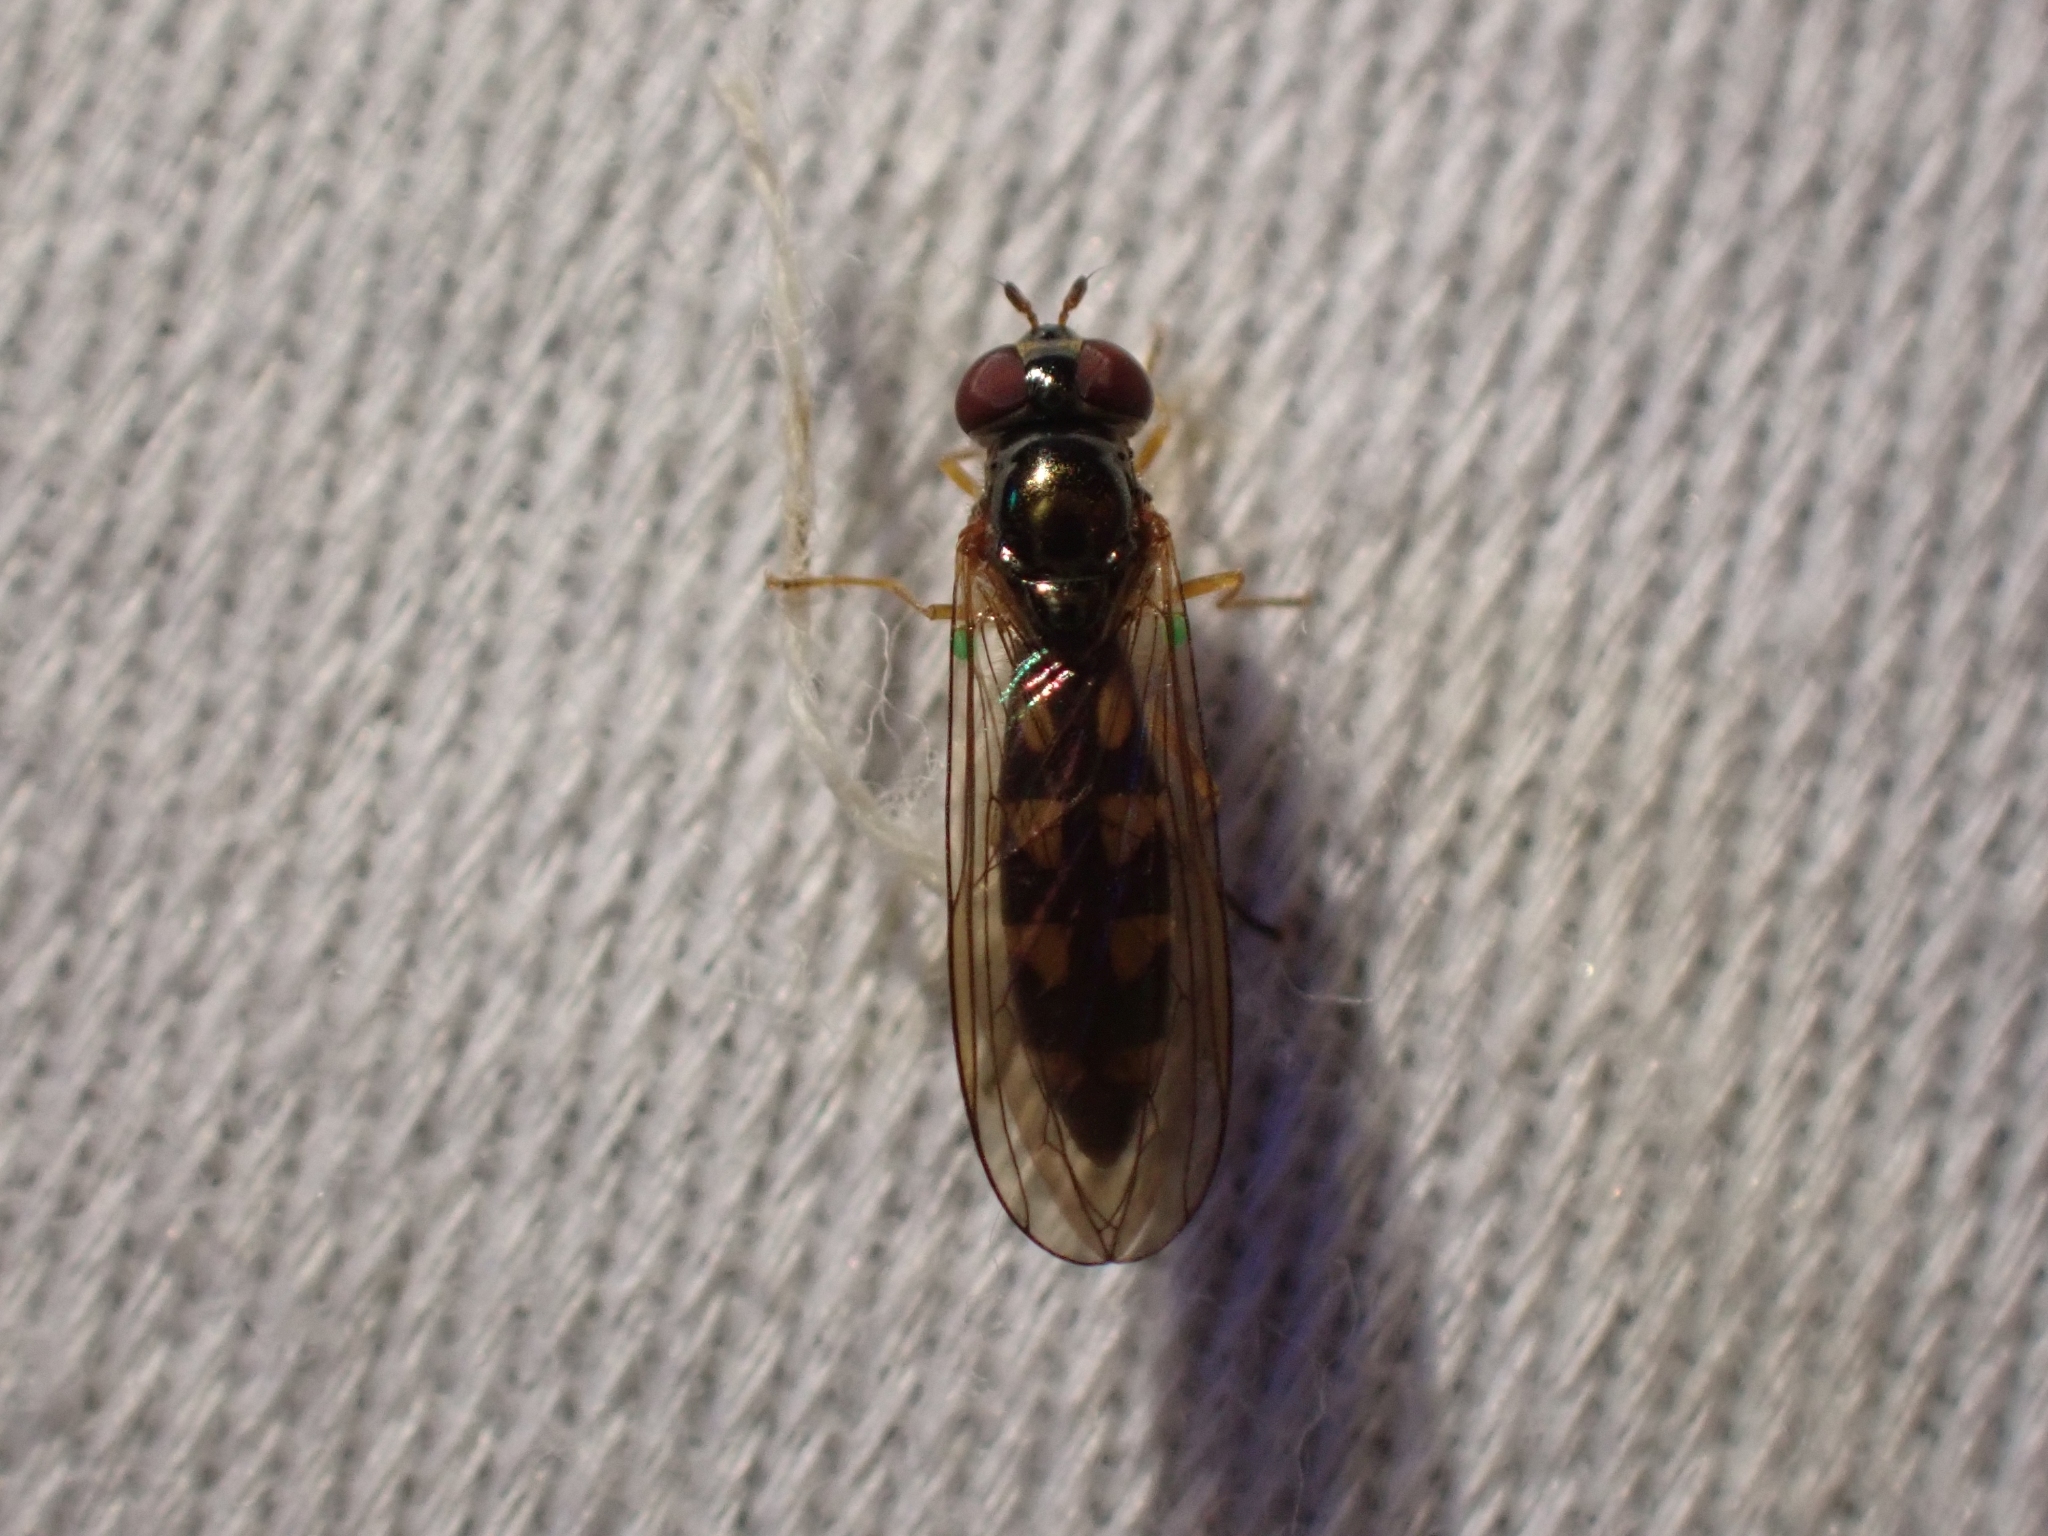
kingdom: Animalia
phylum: Arthropoda
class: Insecta
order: Diptera
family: Syrphidae
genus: Melanostoma
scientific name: Melanostoma mellina
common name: Hover fly
